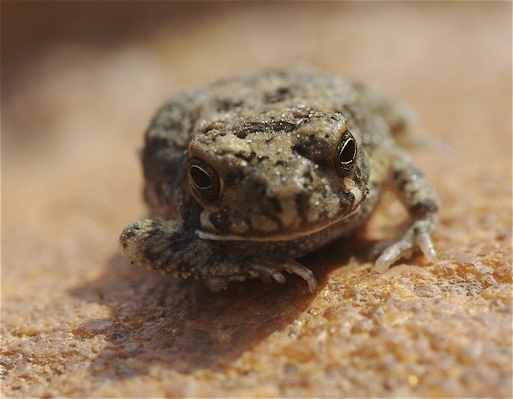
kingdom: Animalia
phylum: Chordata
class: Amphibia
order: Anura
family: Bufonidae
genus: Poyntonophrynus
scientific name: Poyntonophrynus fenoulheti
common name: Fenoulhet's toad
